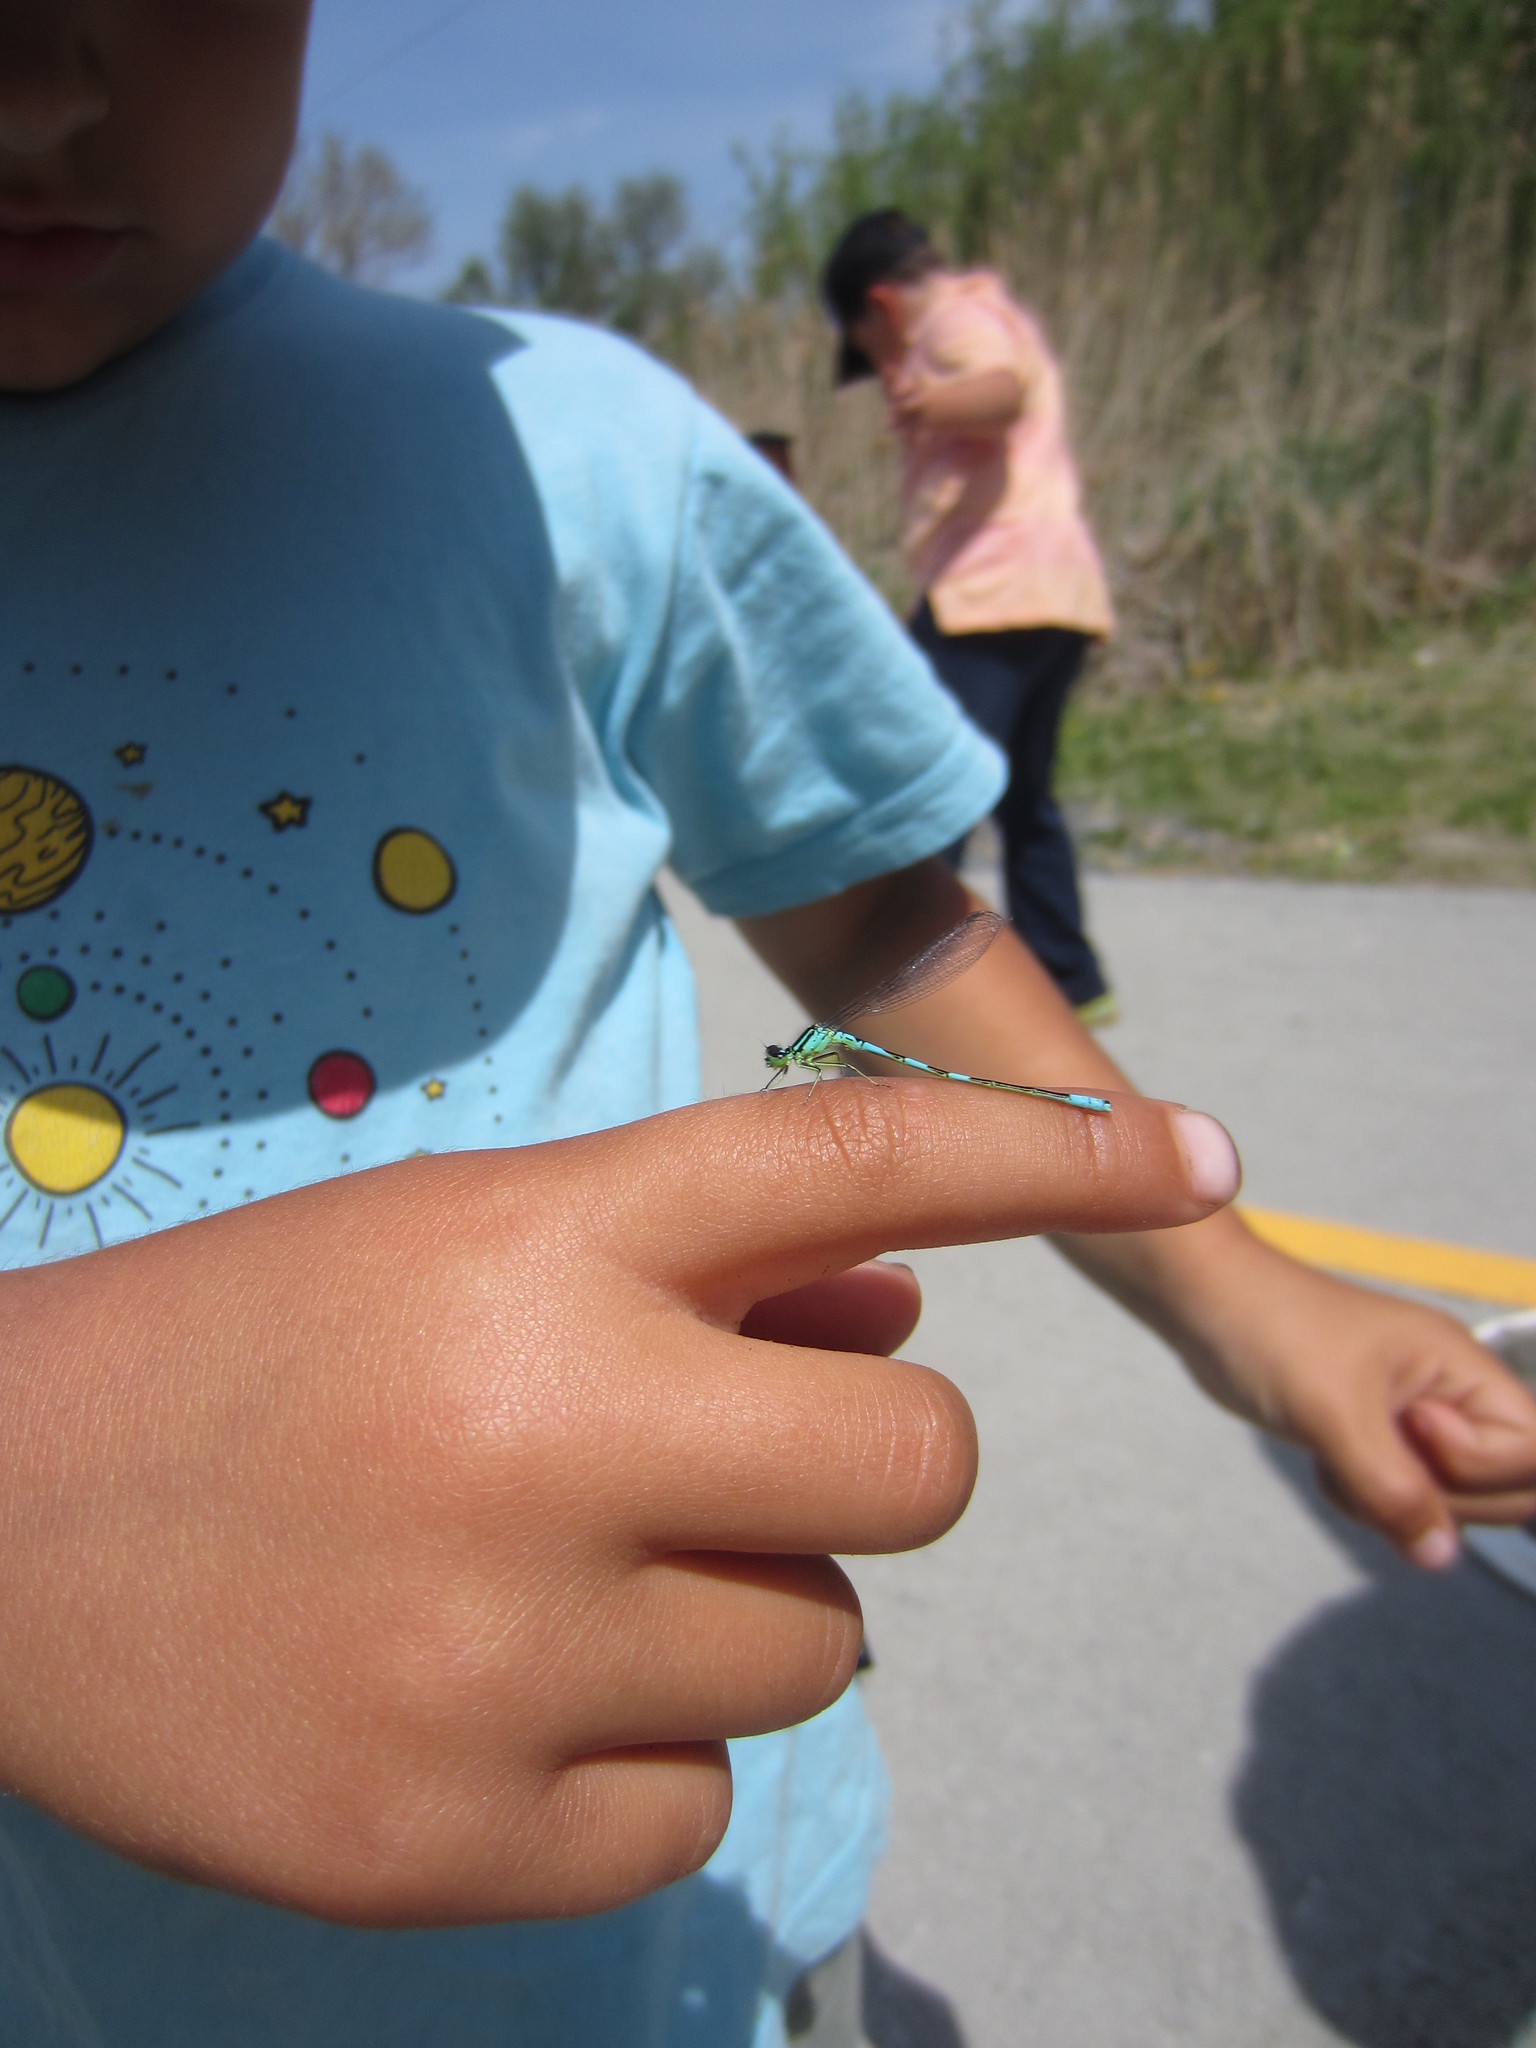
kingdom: Animalia
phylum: Arthropoda
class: Insecta
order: Odonata
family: Coenagrionidae
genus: Coenagrion
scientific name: Coenagrion resolutum
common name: Taiga bluet
